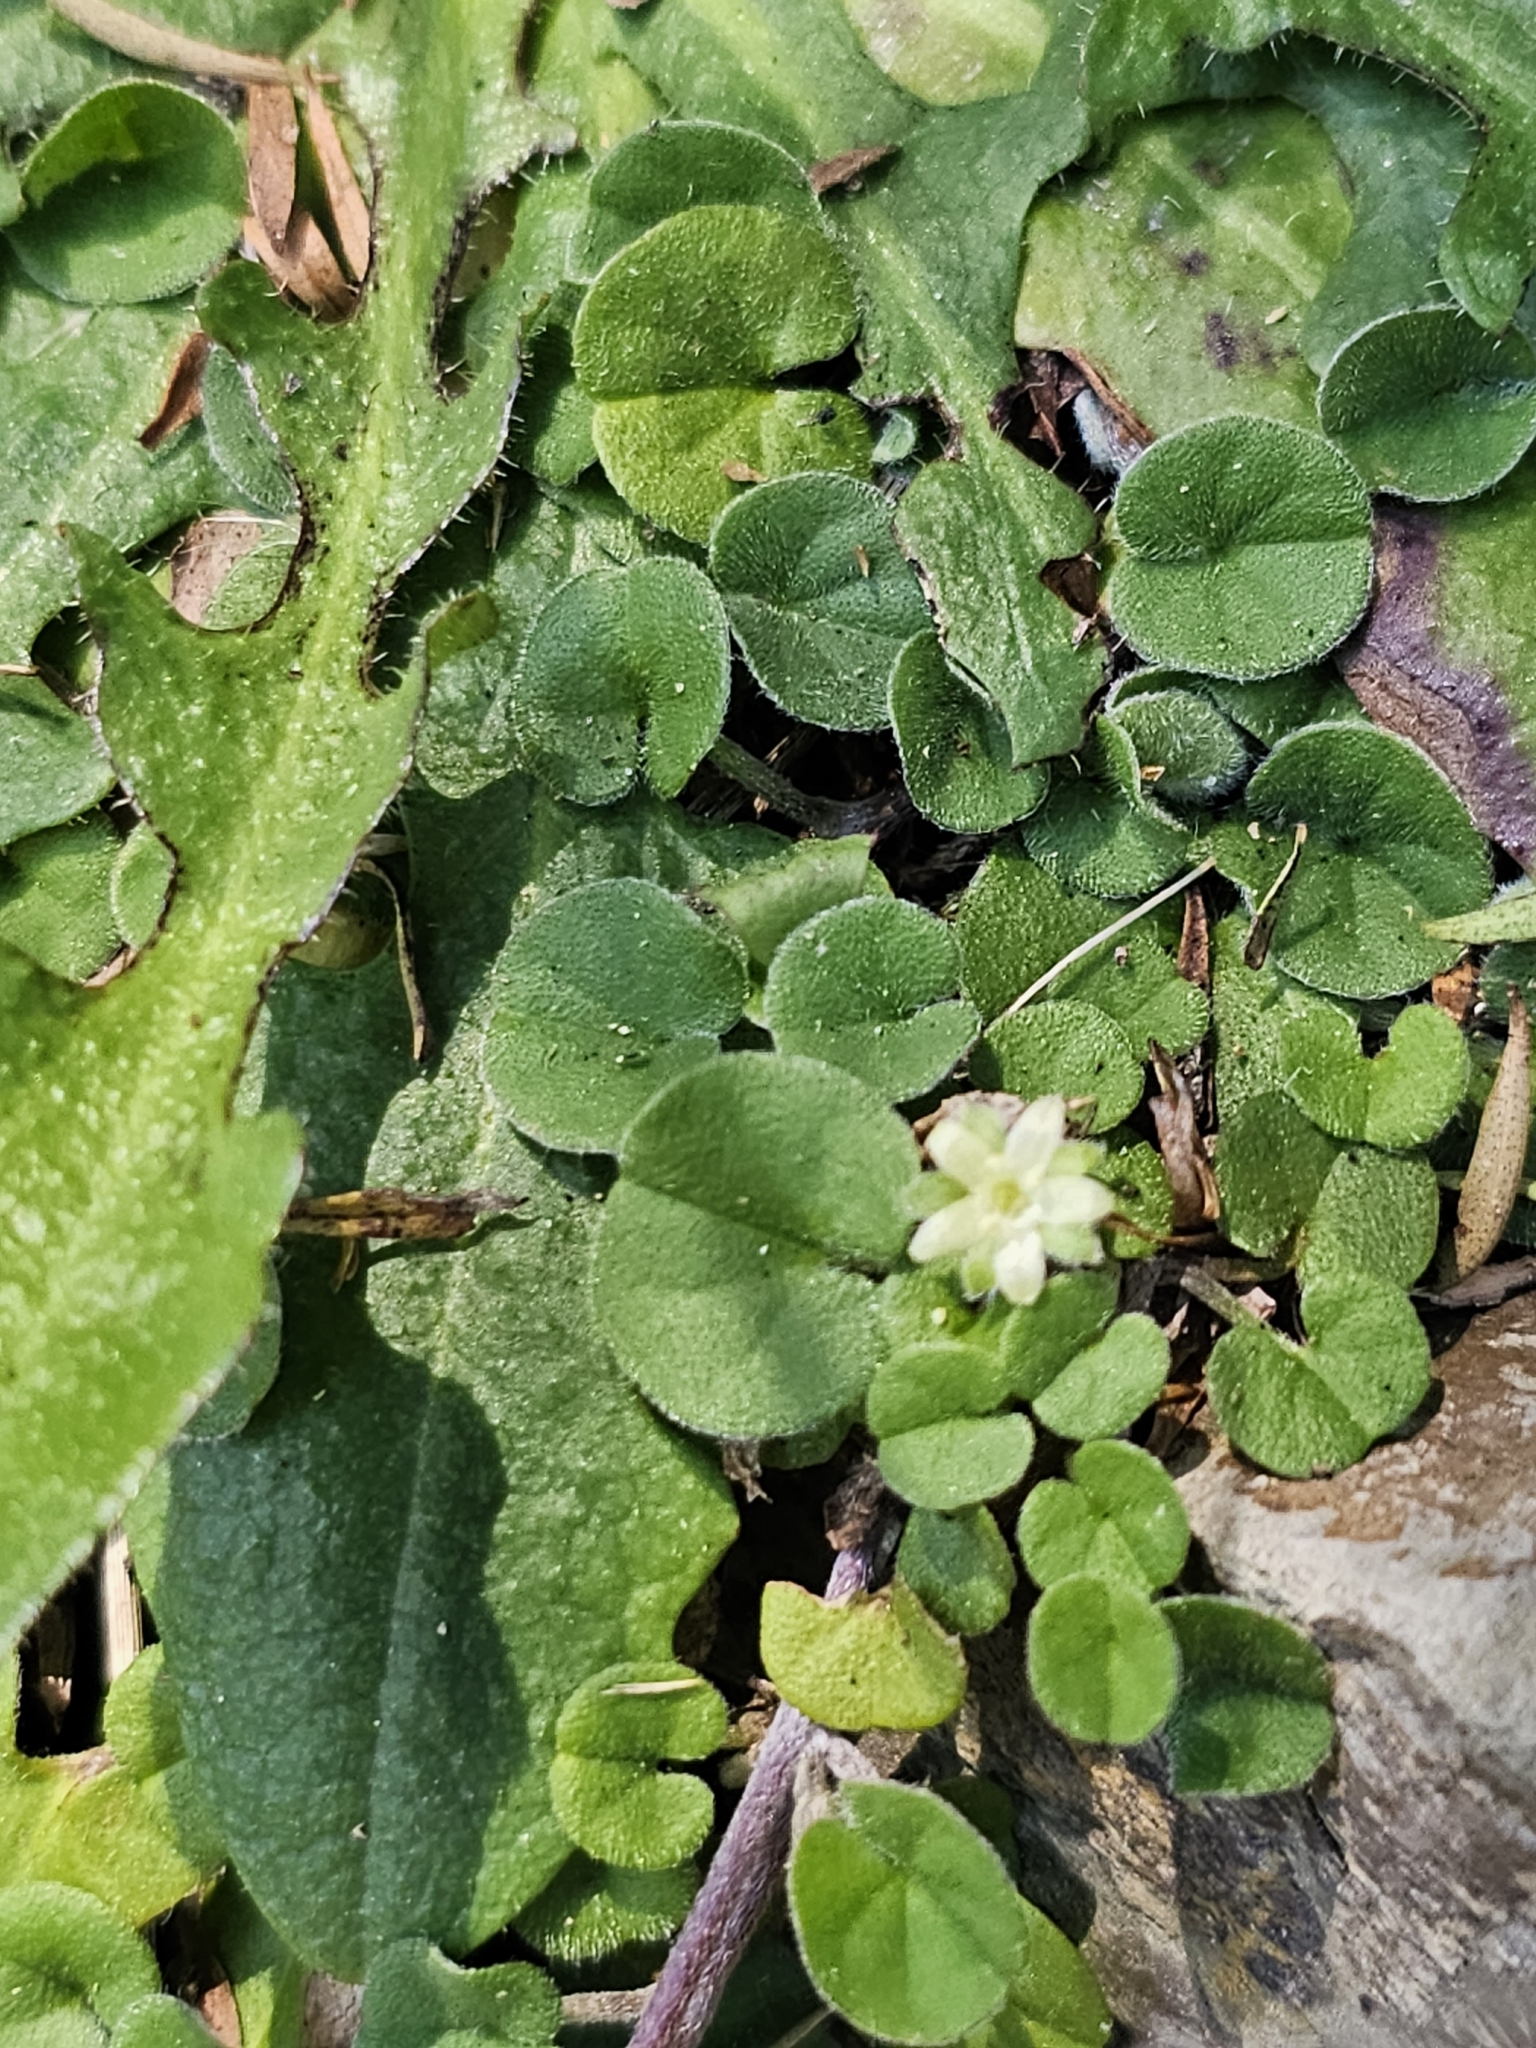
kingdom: Plantae
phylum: Tracheophyta
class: Magnoliopsida
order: Solanales
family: Convolvulaceae
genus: Dichondra
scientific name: Dichondra repens
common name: Kidneyweed
